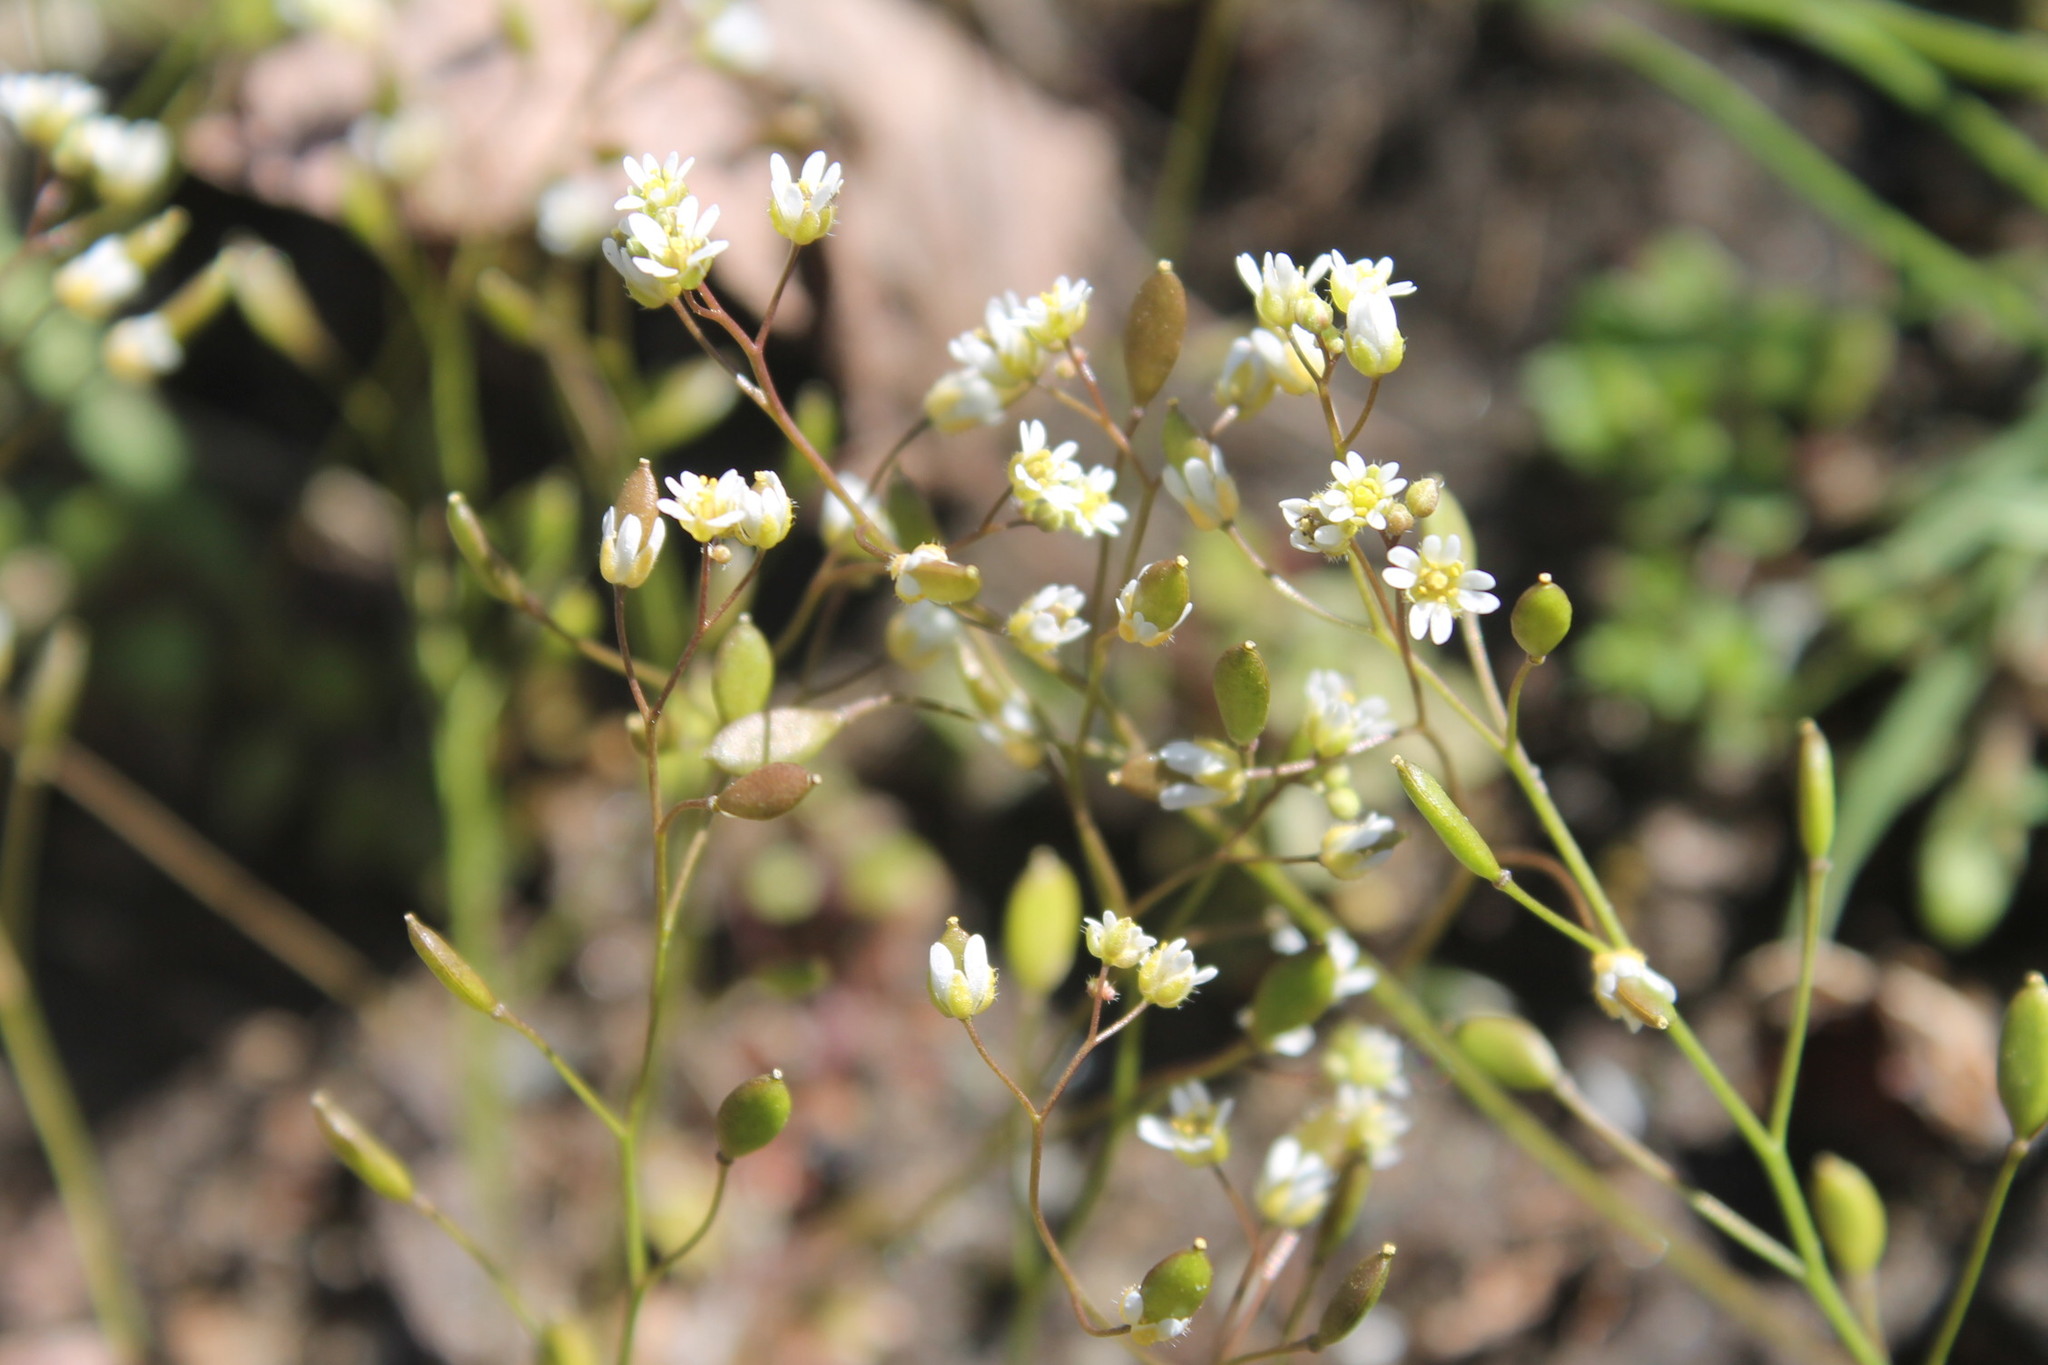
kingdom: Plantae
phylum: Tracheophyta
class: Magnoliopsida
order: Brassicales
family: Brassicaceae
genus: Draba
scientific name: Draba verna
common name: Spring draba
